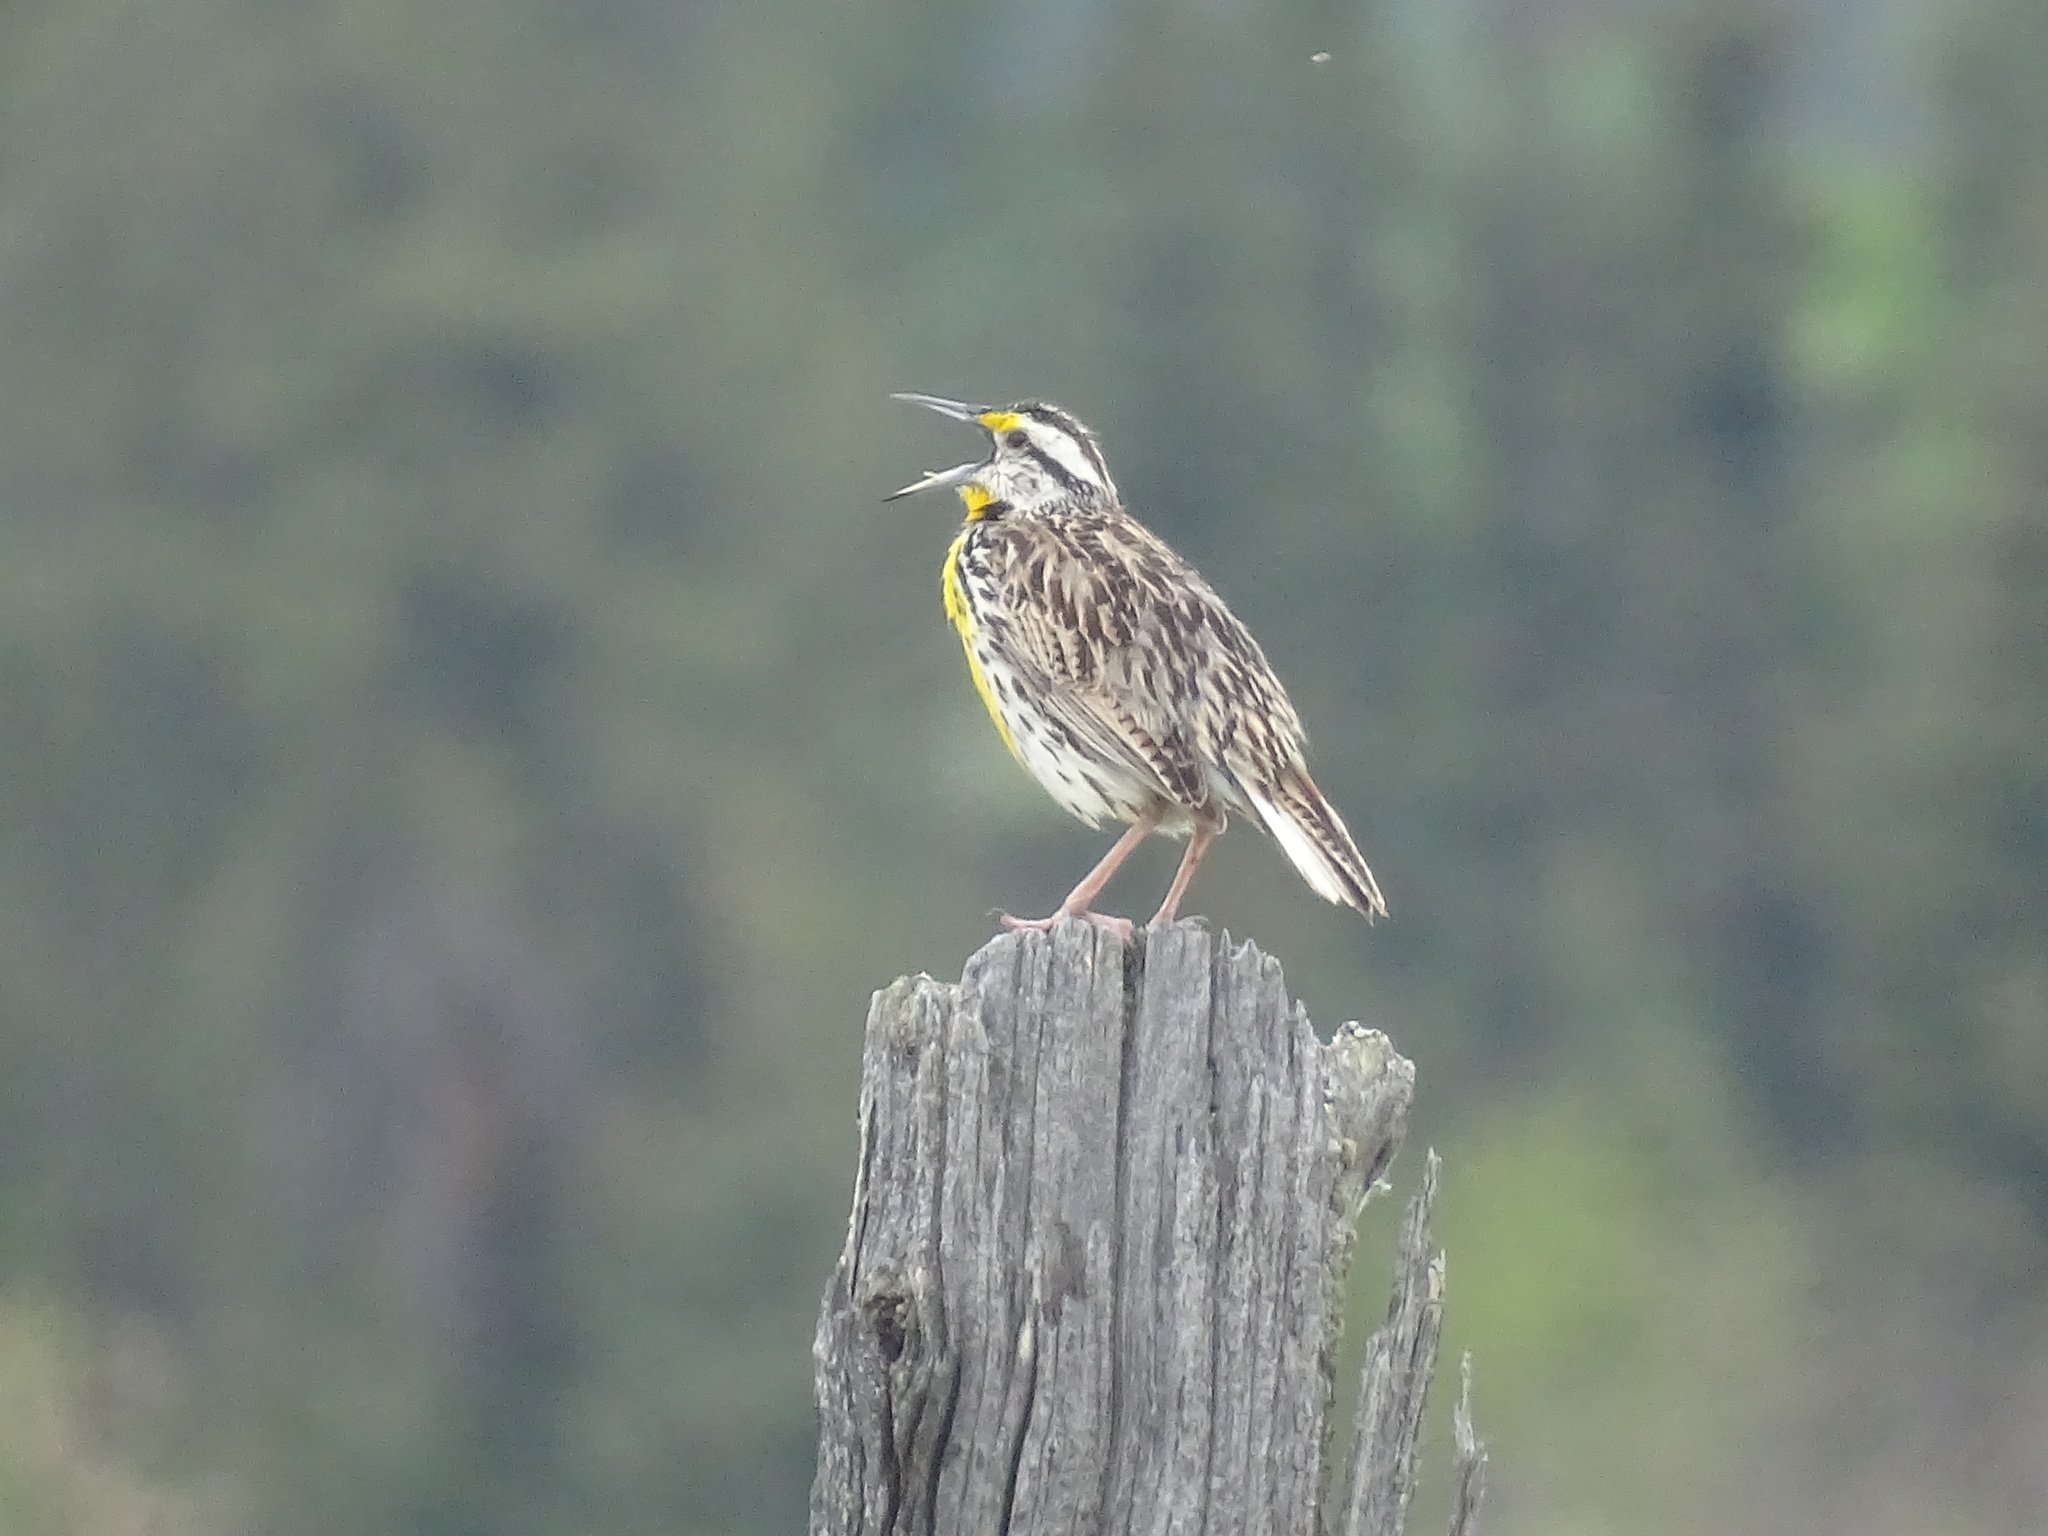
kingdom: Animalia
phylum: Chordata
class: Aves
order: Passeriformes
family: Icteridae
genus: Sturnella
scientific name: Sturnella magna
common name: Eastern meadowlark
